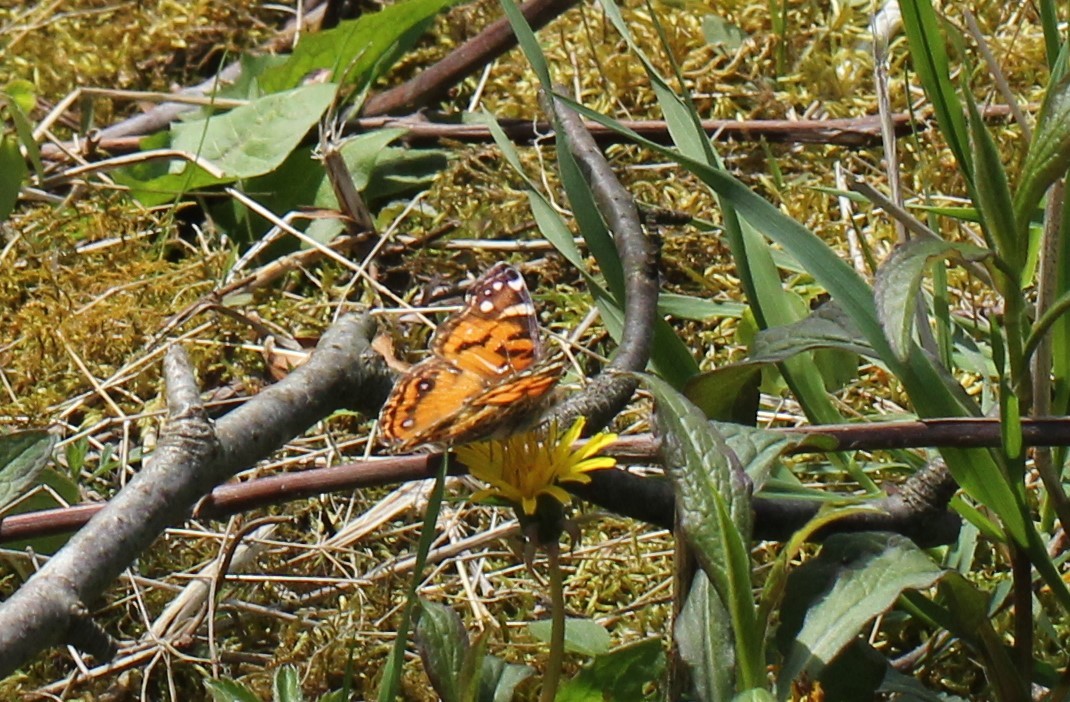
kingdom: Animalia
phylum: Arthropoda
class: Insecta
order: Lepidoptera
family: Nymphalidae
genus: Vanessa
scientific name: Vanessa virginiensis
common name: American lady
